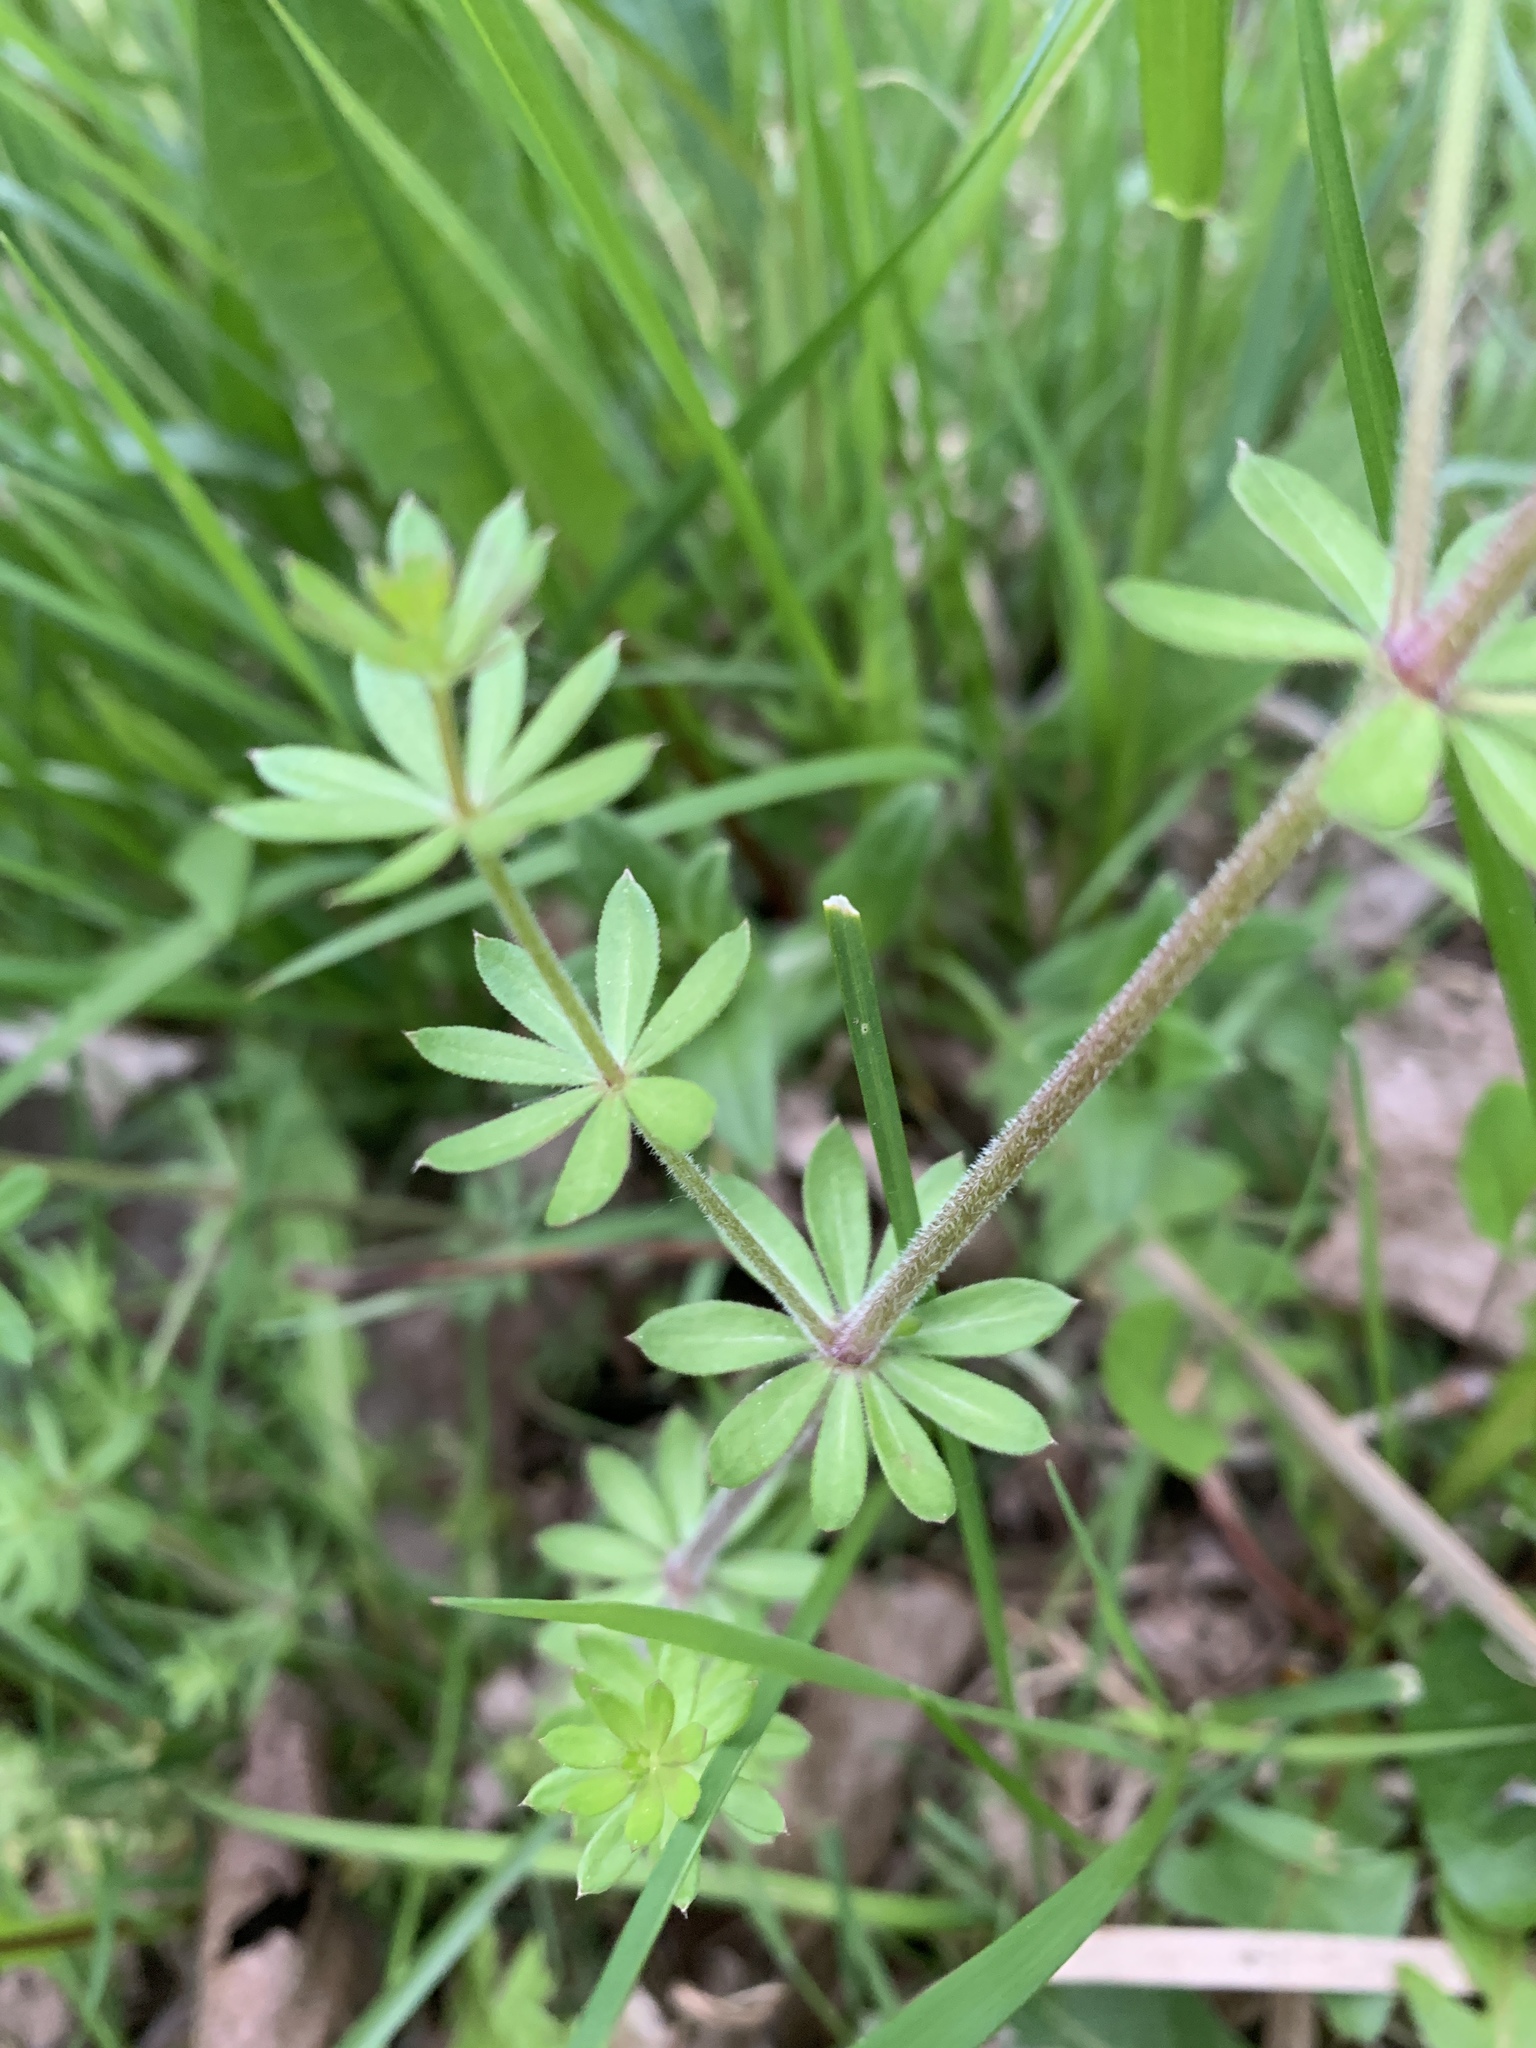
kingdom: Plantae
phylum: Tracheophyta
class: Magnoliopsida
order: Gentianales
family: Rubiaceae
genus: Galium
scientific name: Galium mollugo
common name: Hedge bedstraw
